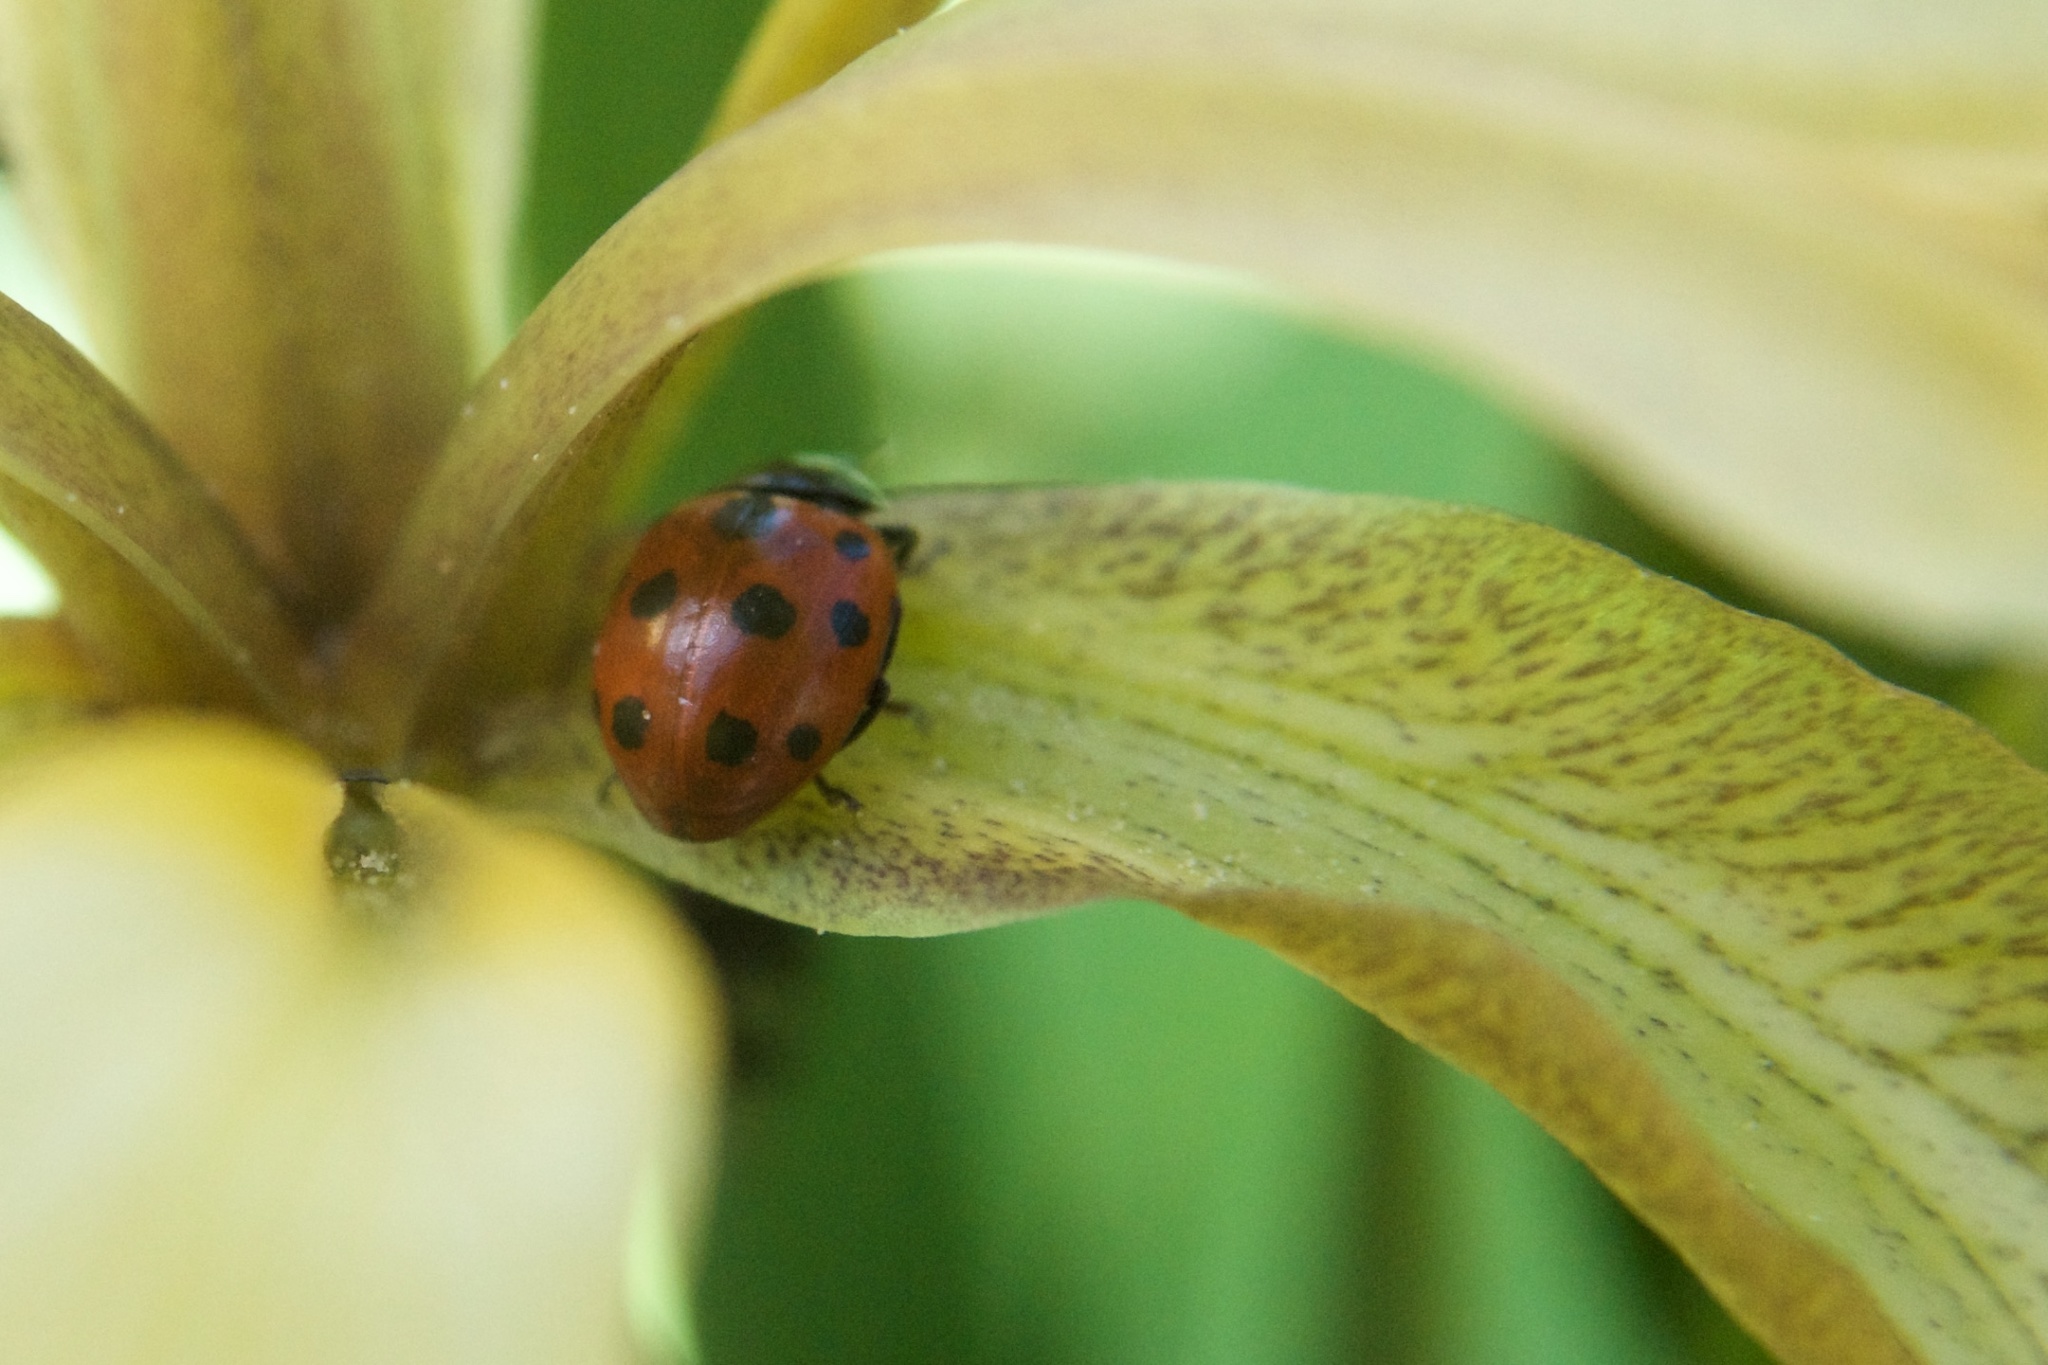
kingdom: Animalia
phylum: Arthropoda
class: Insecta
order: Coleoptera
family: Coccinellidae
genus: Coccinella
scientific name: Coccinella undecimpunctata
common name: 11-spot ladybird
